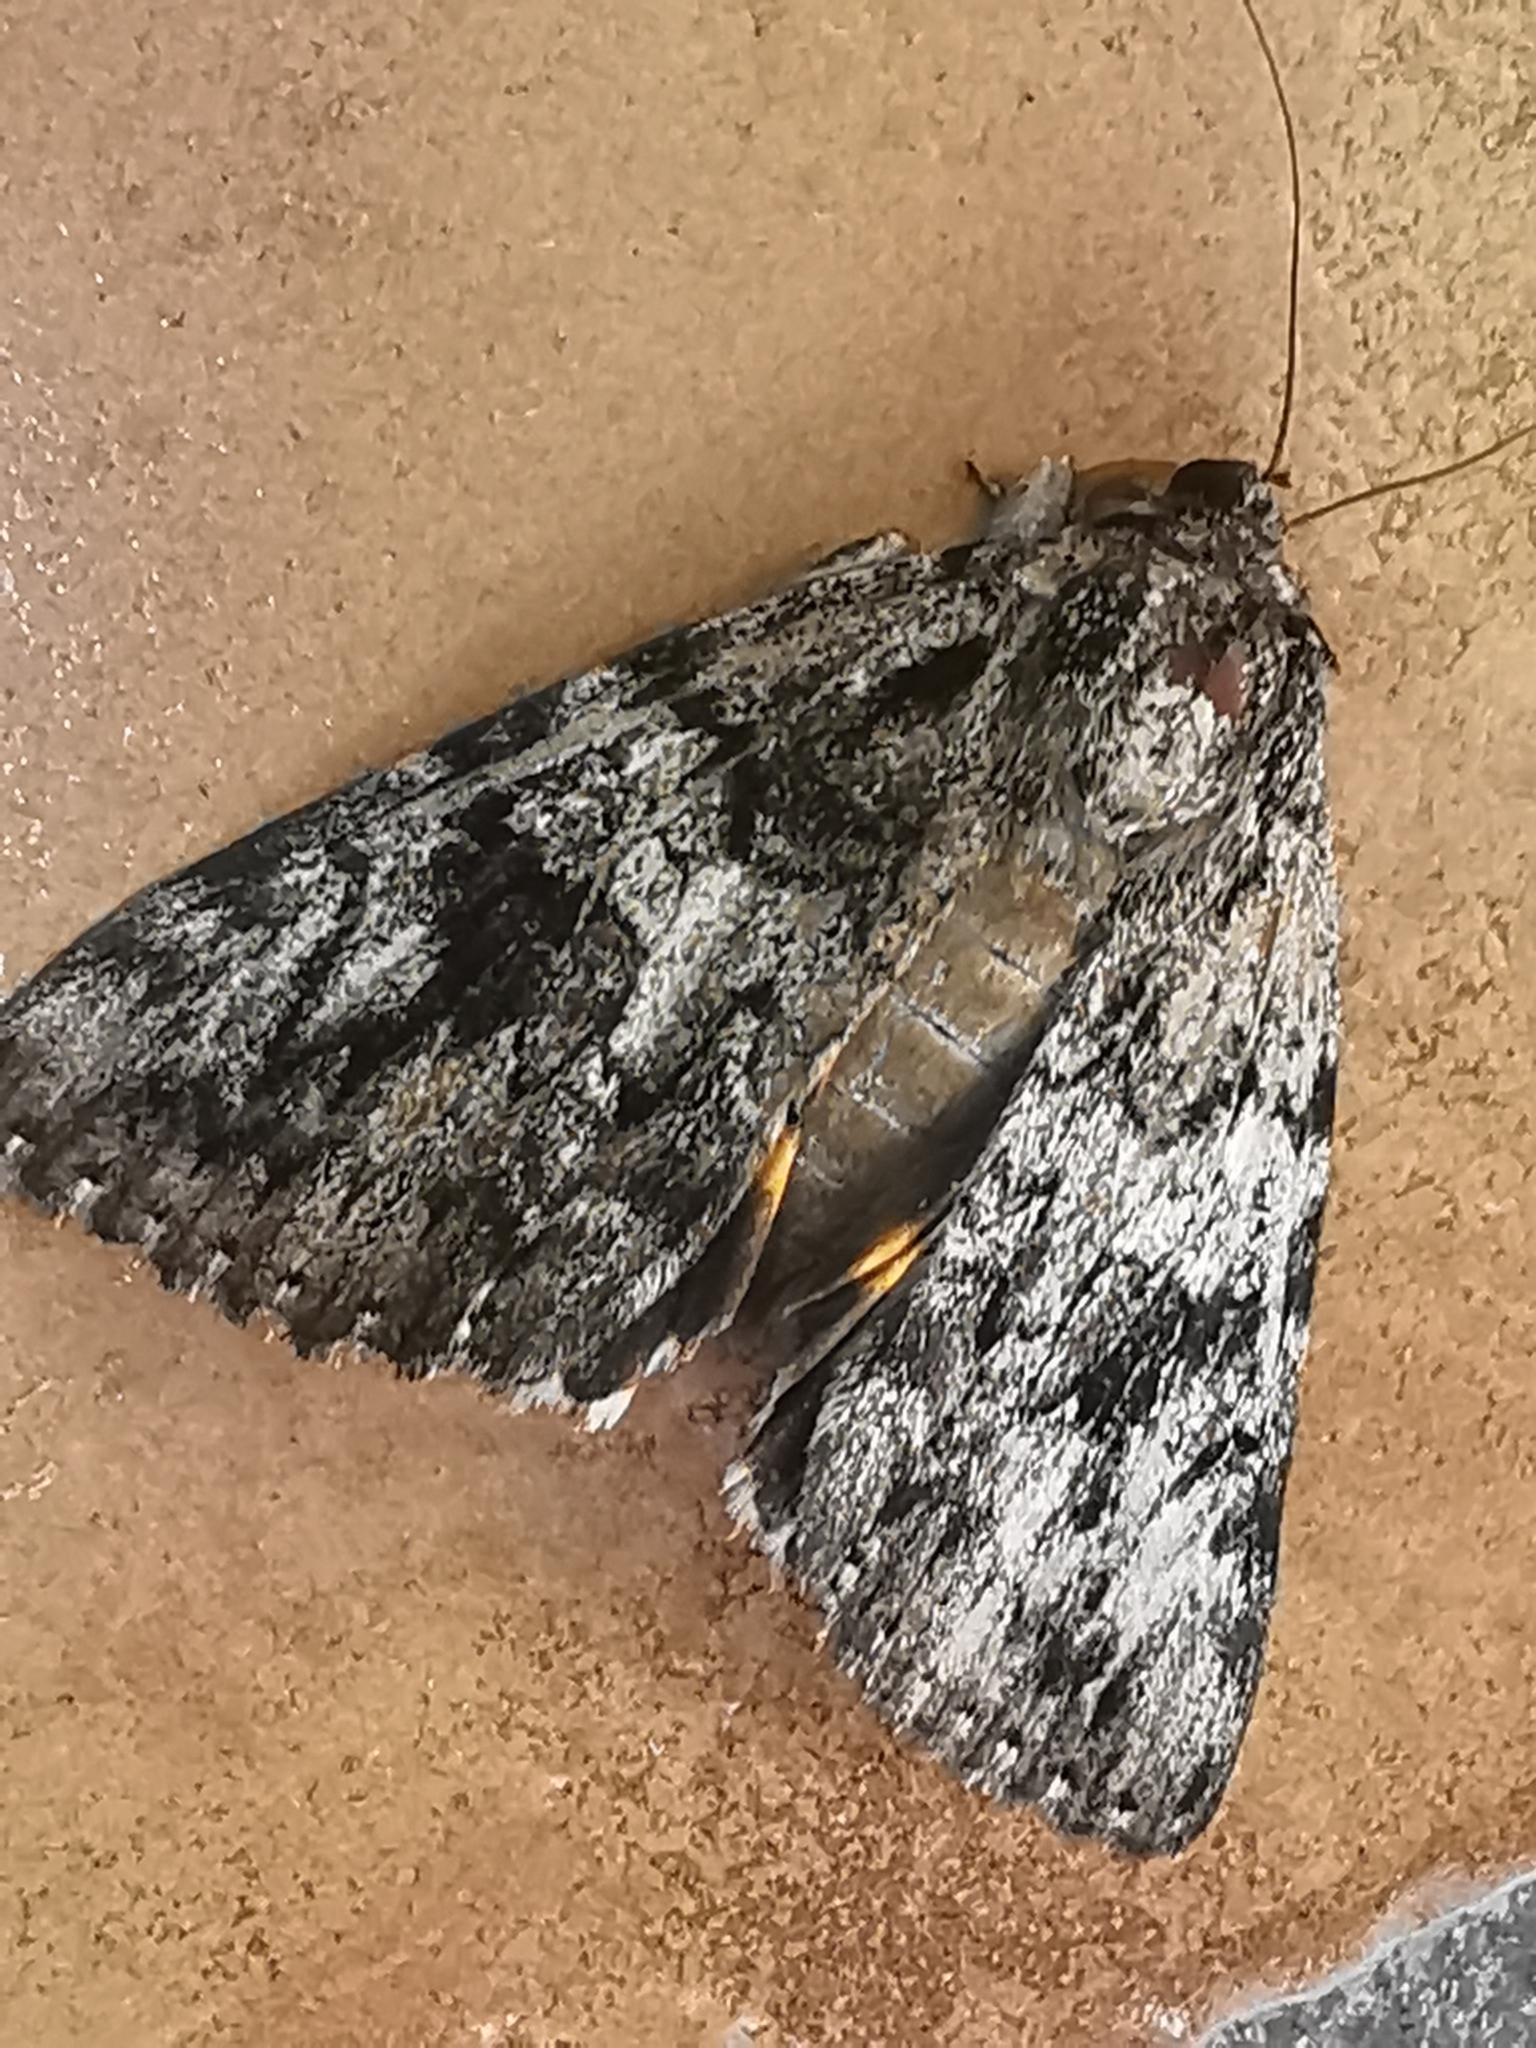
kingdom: Animalia
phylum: Arthropoda
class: Insecta
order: Lepidoptera
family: Erebidae
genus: Catocala
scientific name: Catocala ilia
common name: Ilia underwing
